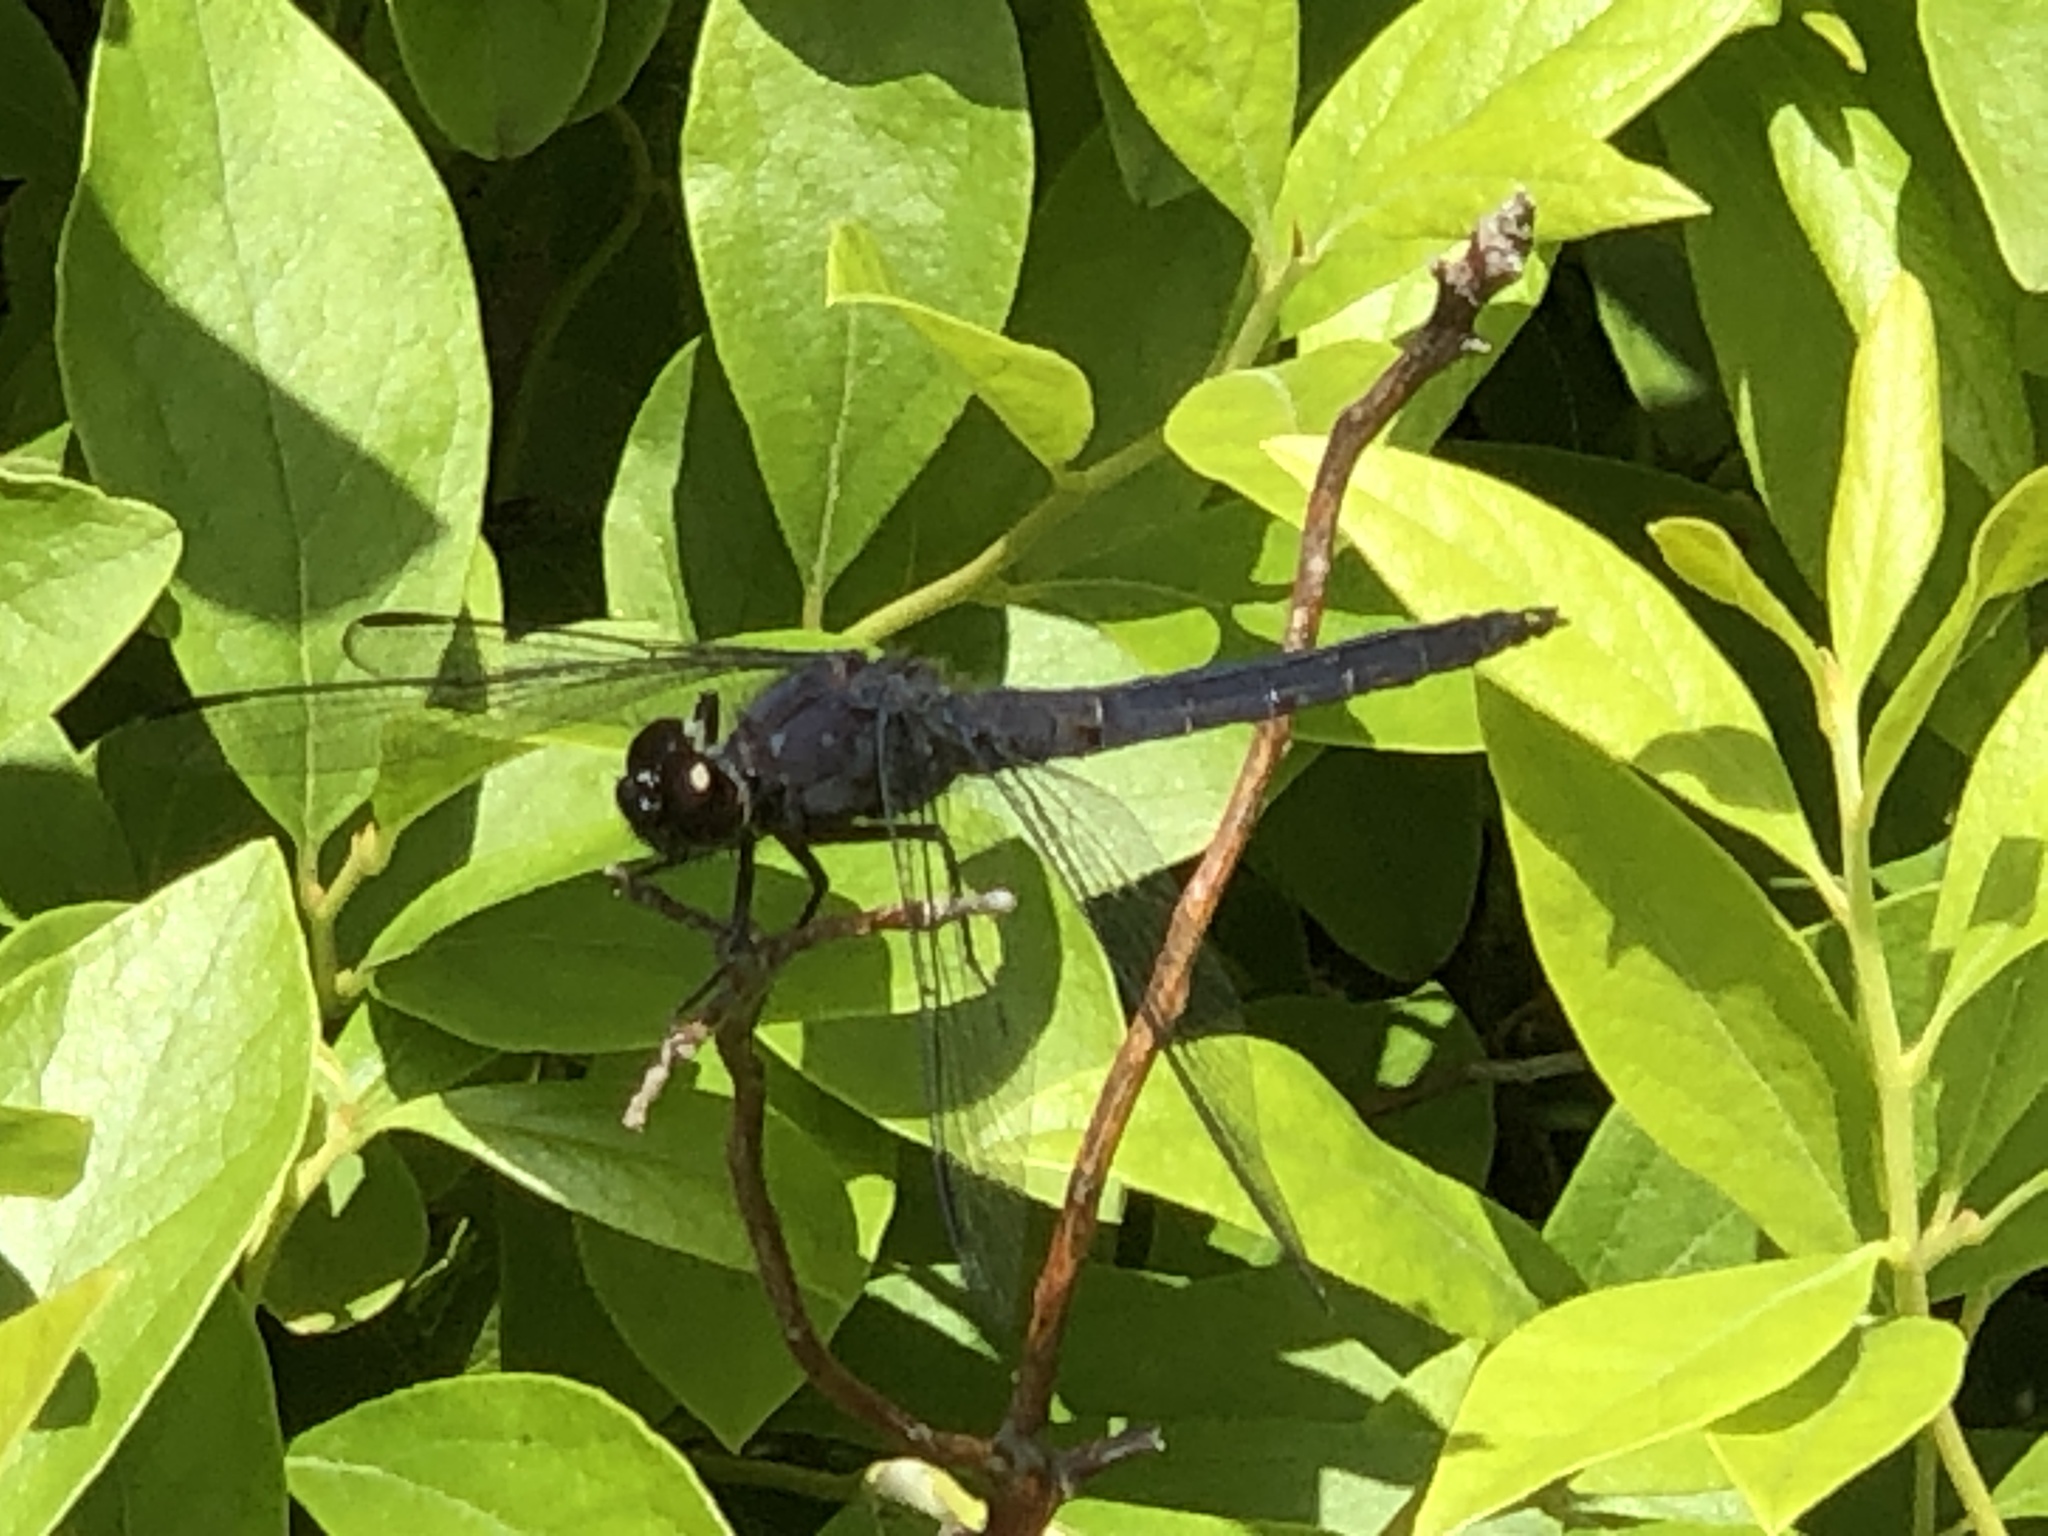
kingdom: Animalia
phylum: Arthropoda
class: Insecta
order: Odonata
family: Libellulidae
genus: Libellula
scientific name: Libellula incesta
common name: Slaty skimmer
